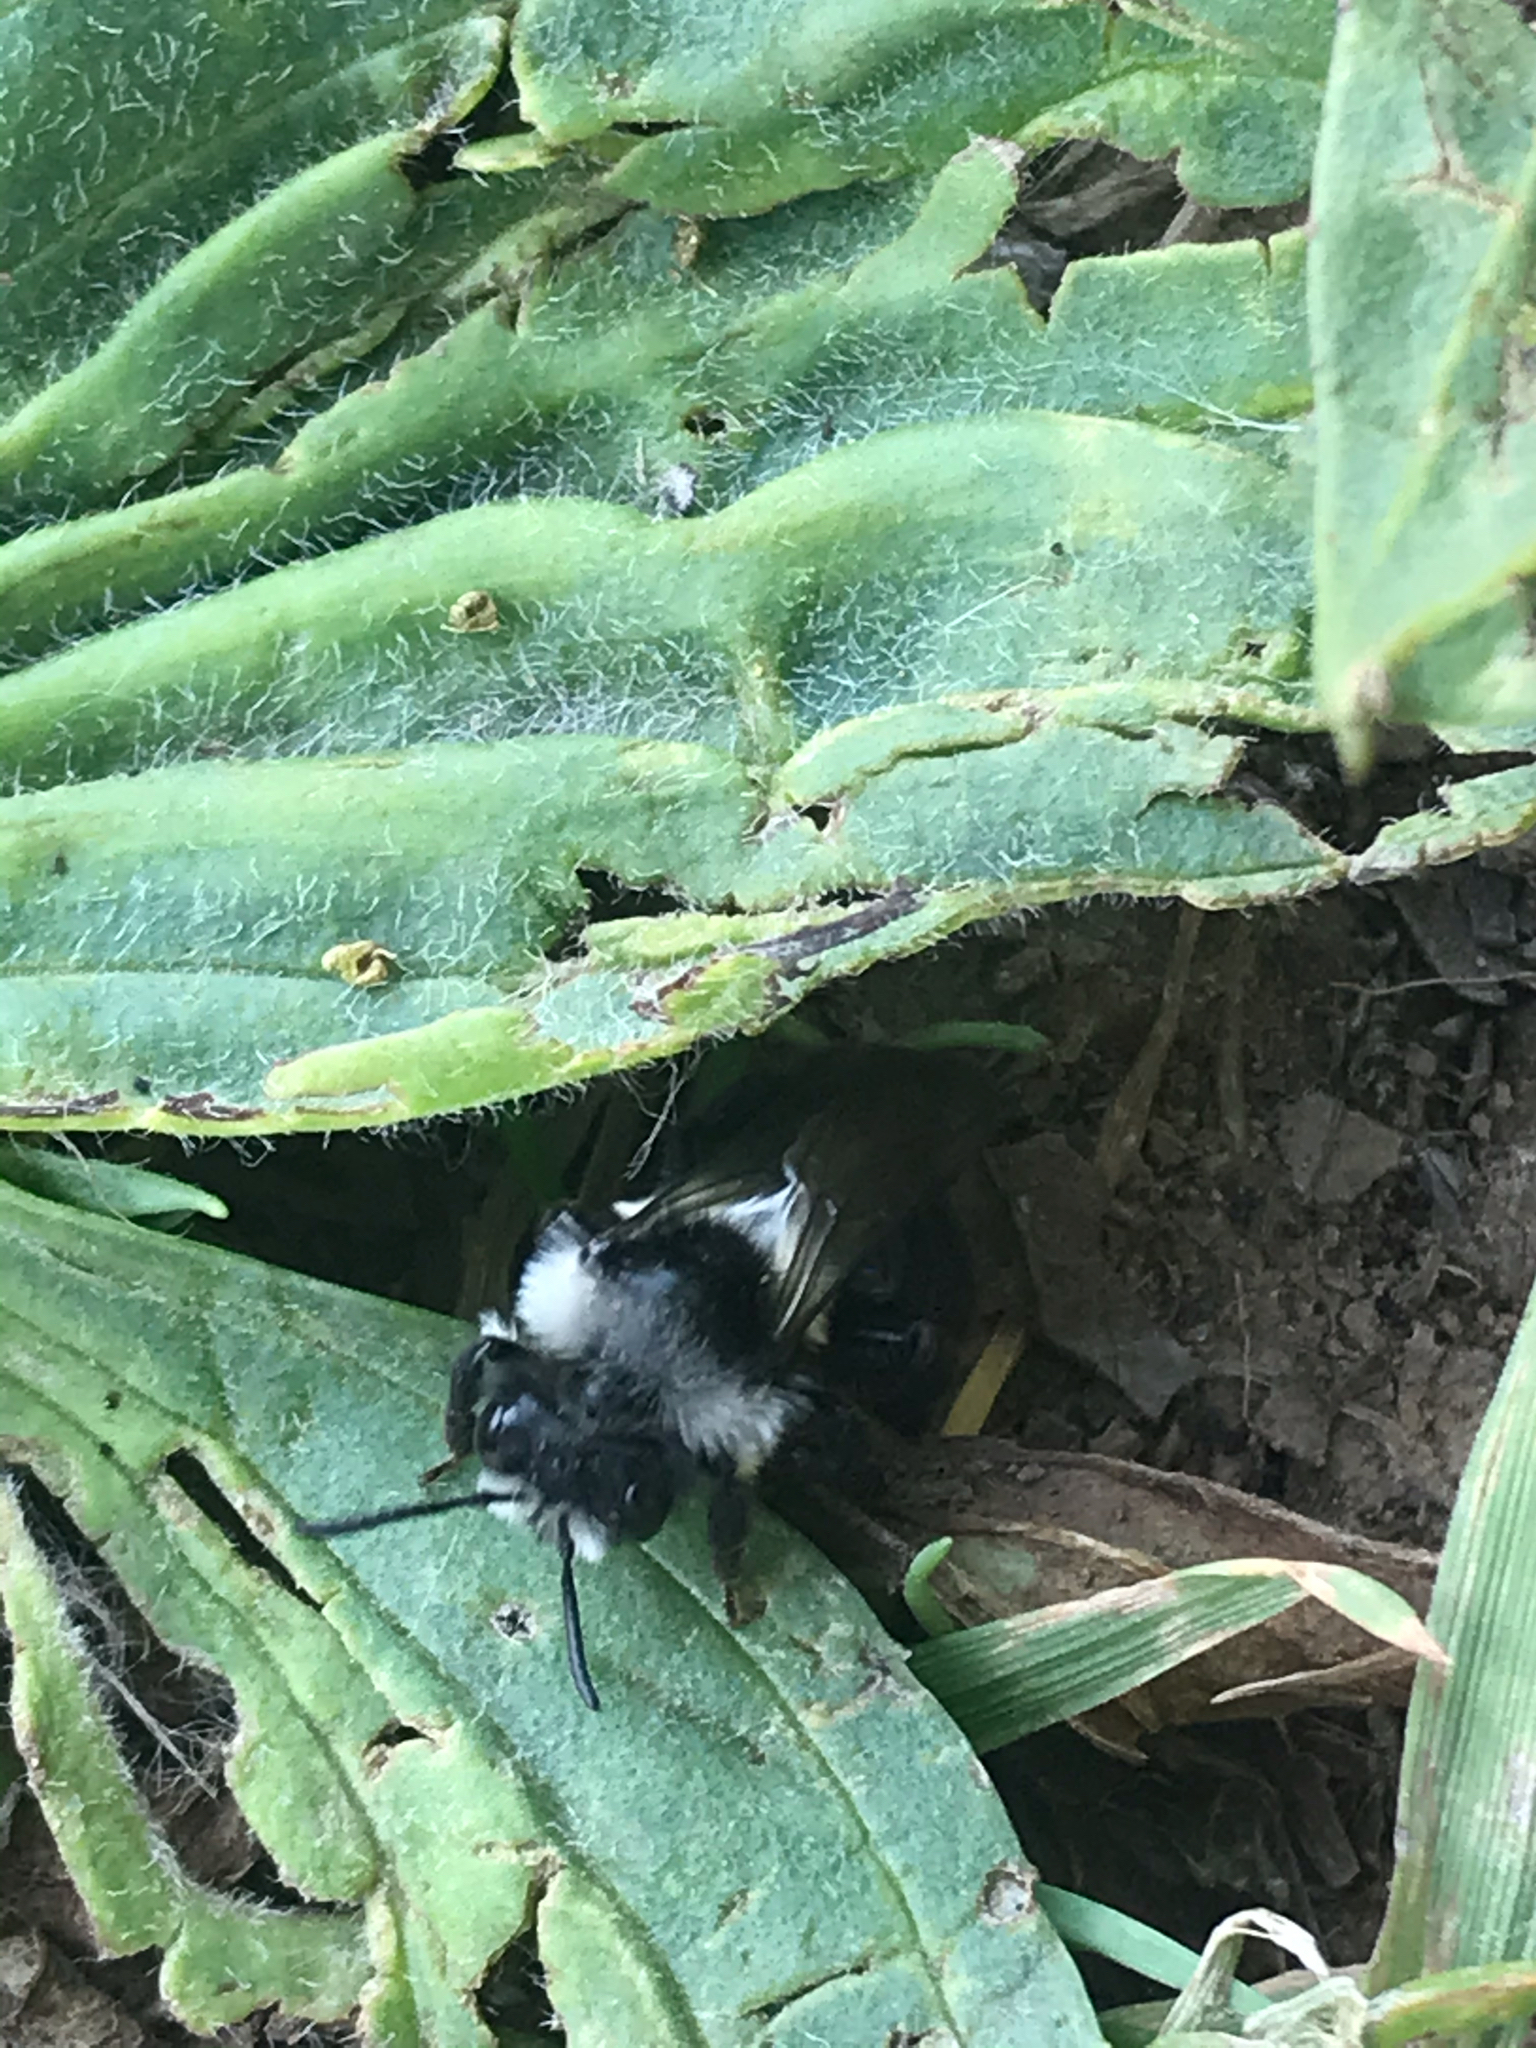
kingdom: Animalia
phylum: Arthropoda
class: Insecta
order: Hymenoptera
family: Andrenidae
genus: Andrena
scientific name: Andrena cineraria
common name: Ashy mining bee
